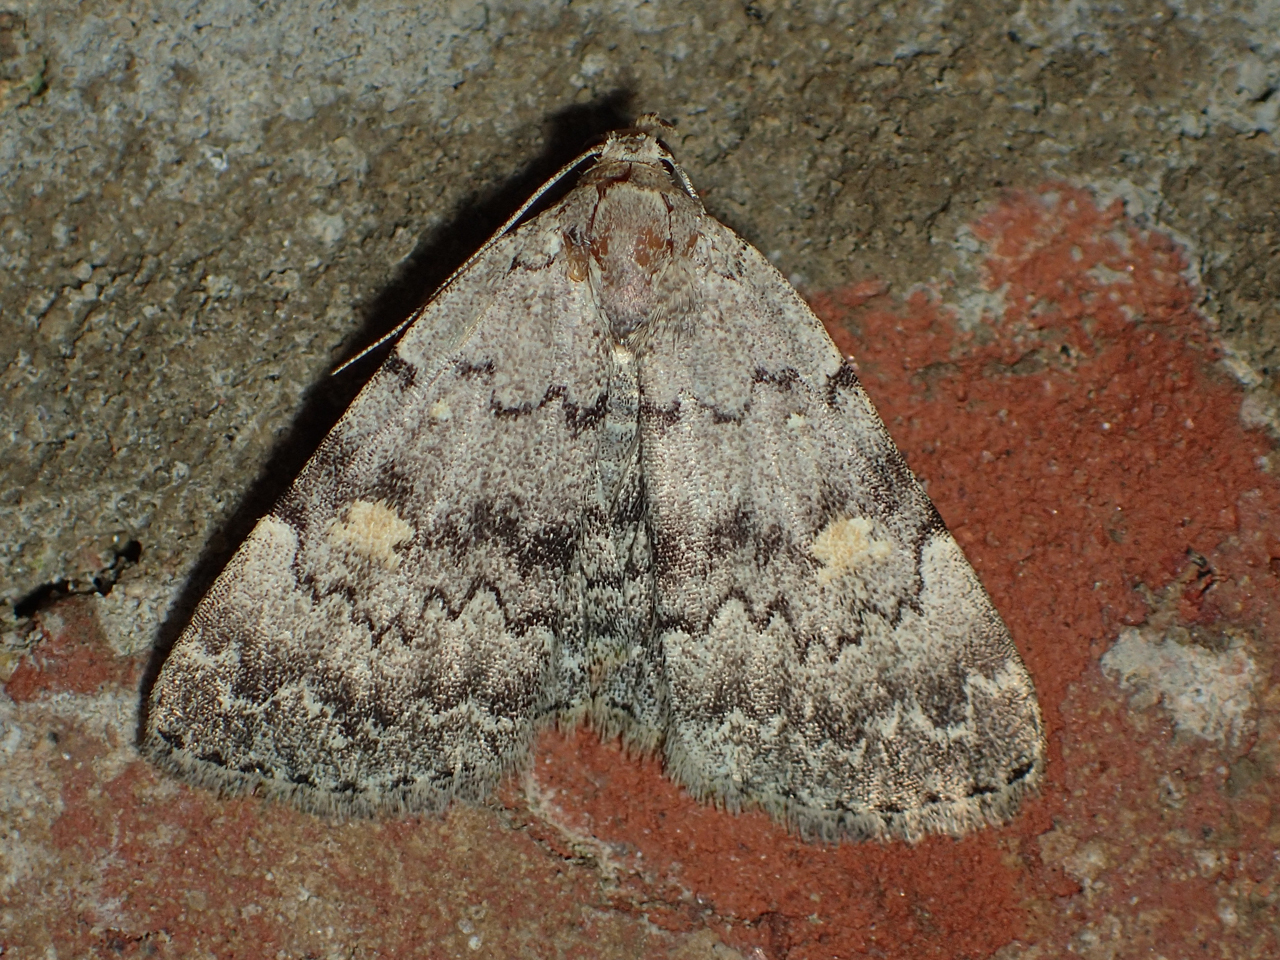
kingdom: Animalia
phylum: Arthropoda
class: Insecta
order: Lepidoptera
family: Erebidae
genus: Idia
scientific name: Idia aemula
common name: Common idia moth
